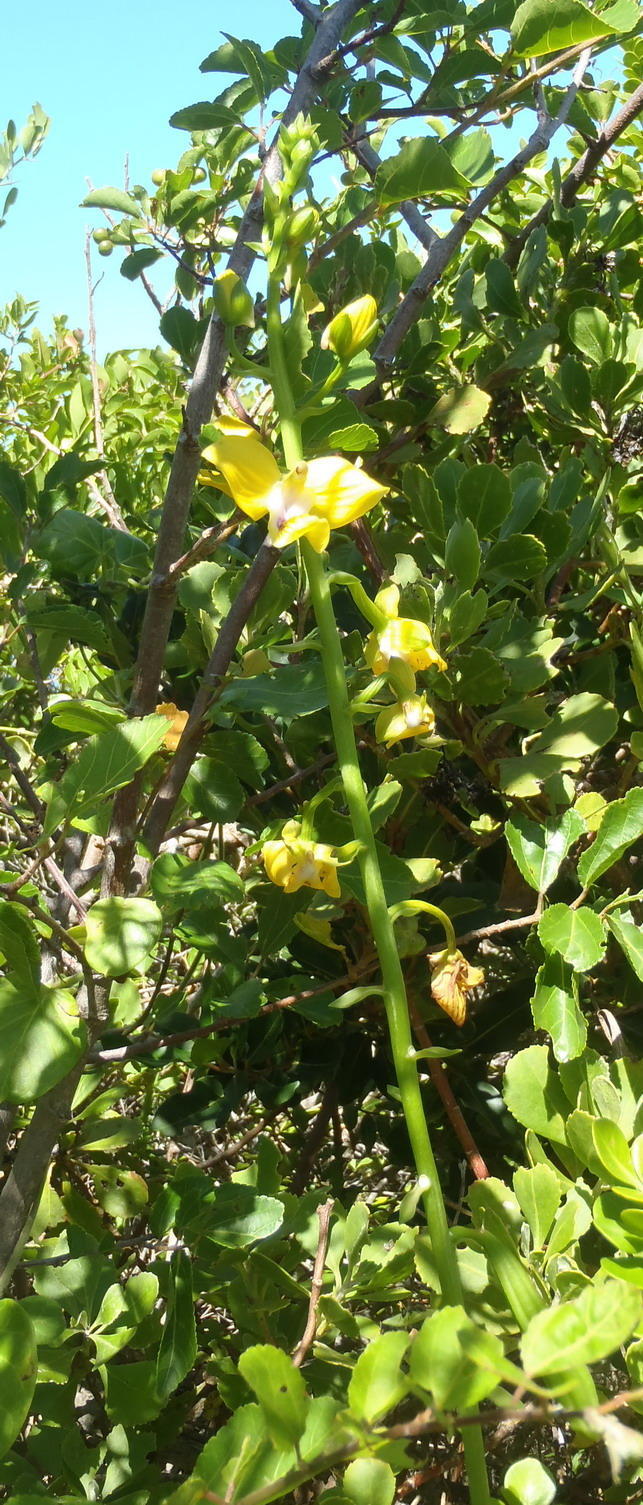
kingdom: Plantae
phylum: Tracheophyta
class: Liliopsida
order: Asparagales
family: Orchidaceae
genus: Eulophia
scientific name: Eulophia speciosa
